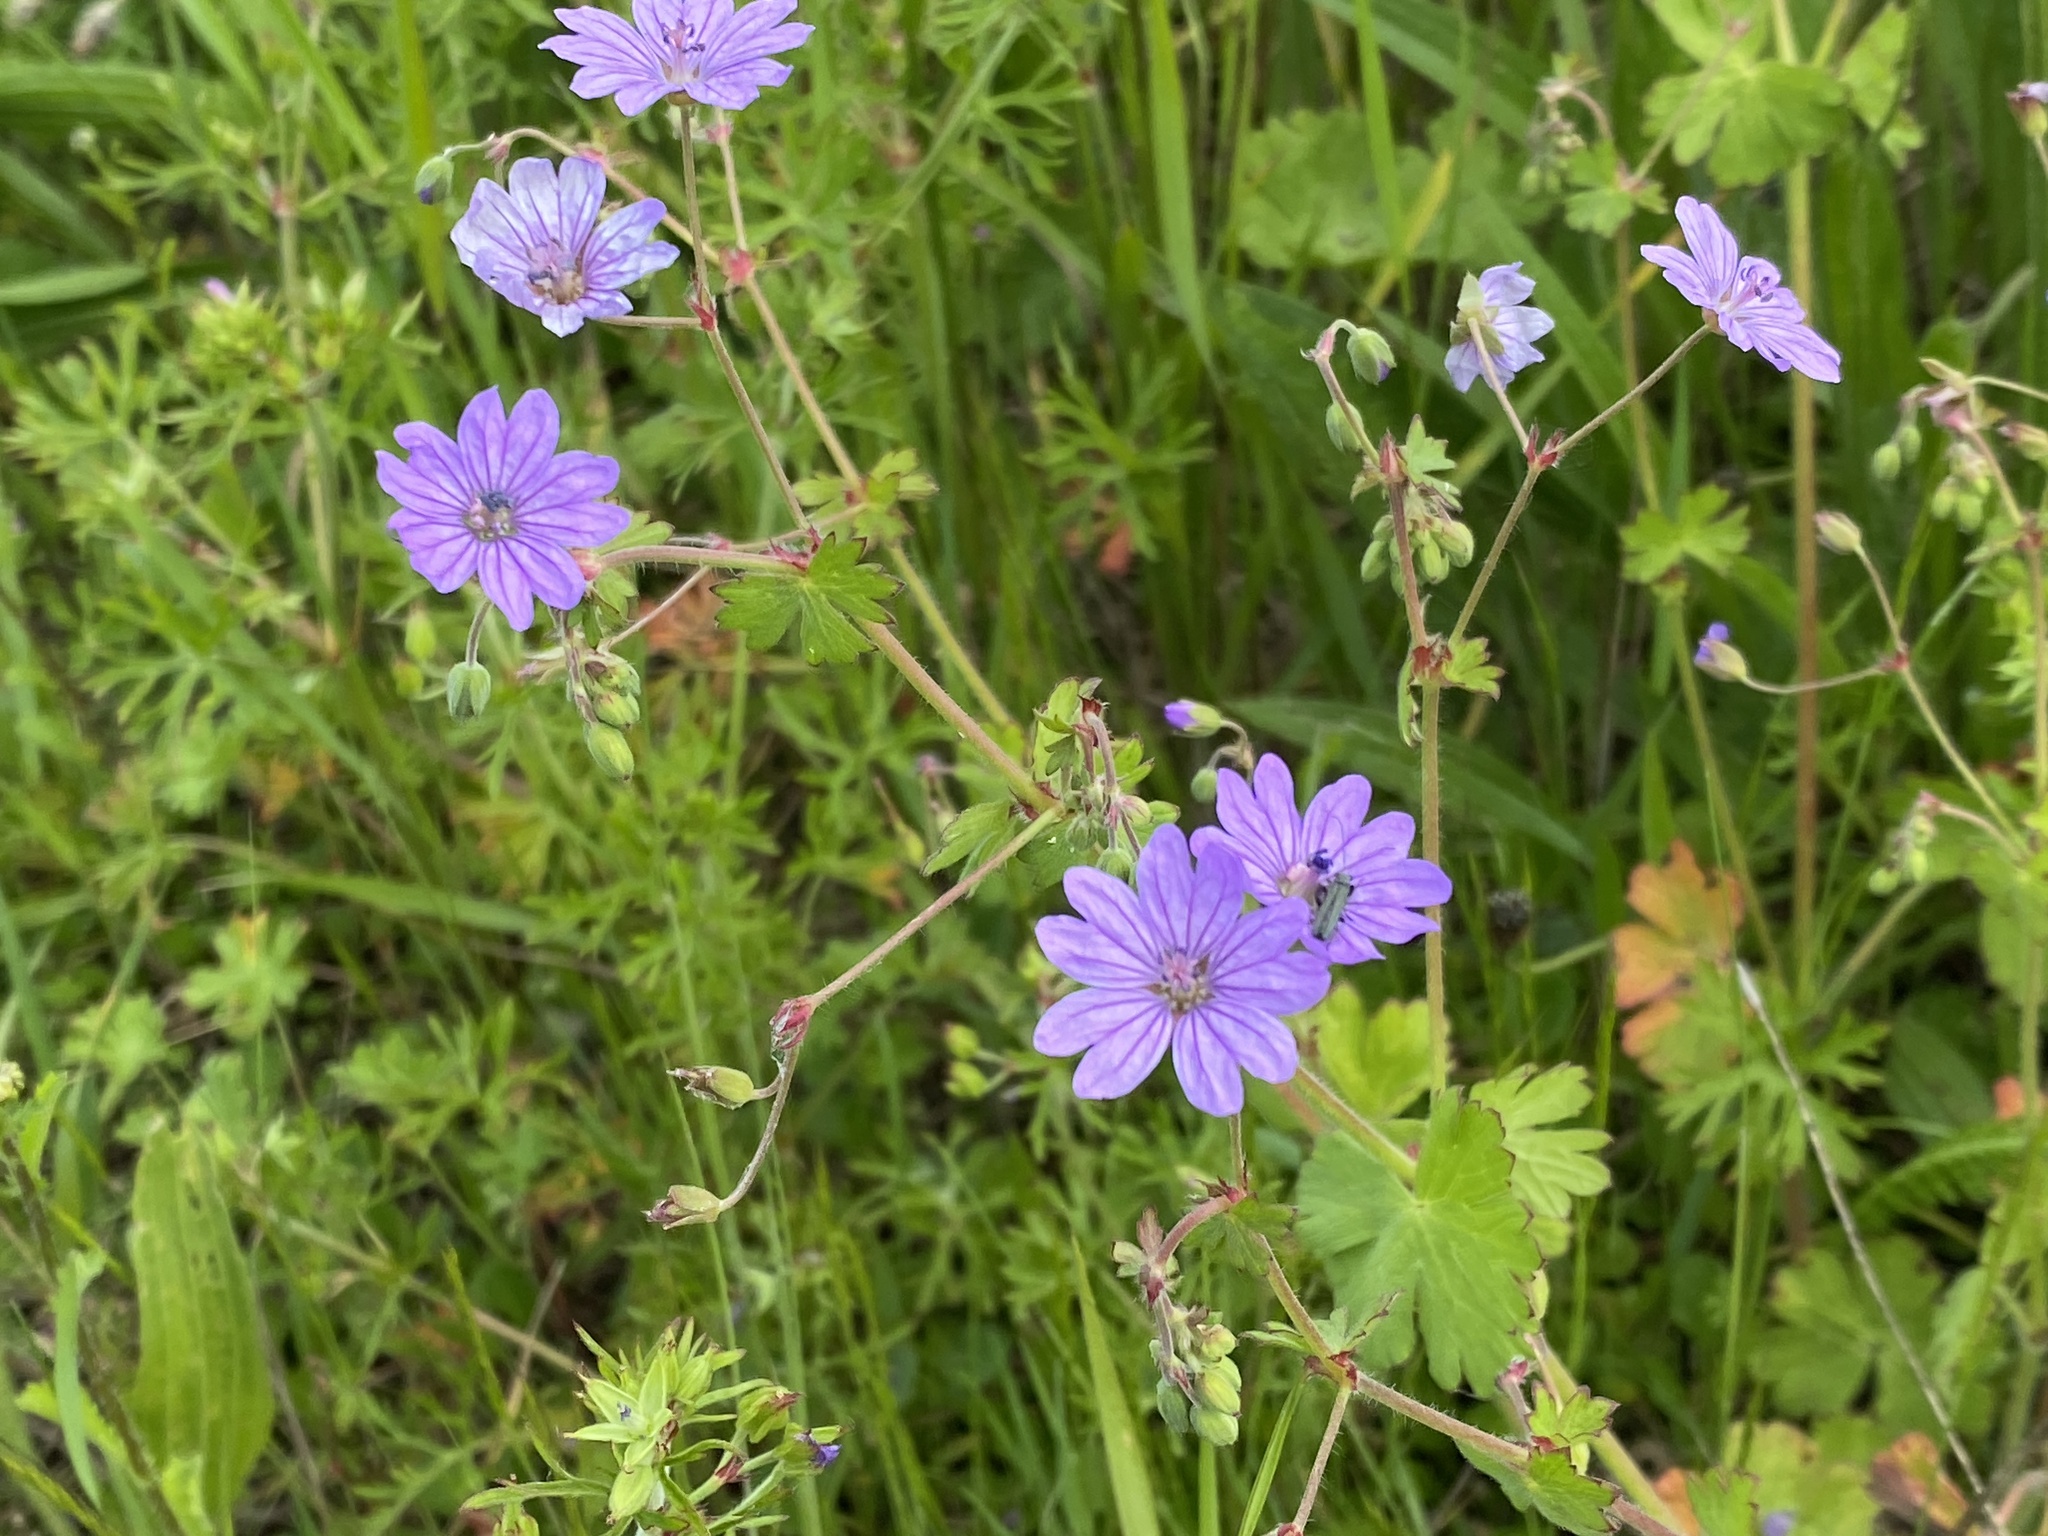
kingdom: Plantae
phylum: Tracheophyta
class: Magnoliopsida
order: Geraniales
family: Geraniaceae
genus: Geranium
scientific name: Geranium pyrenaicum
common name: Hedgerow crane's-bill
